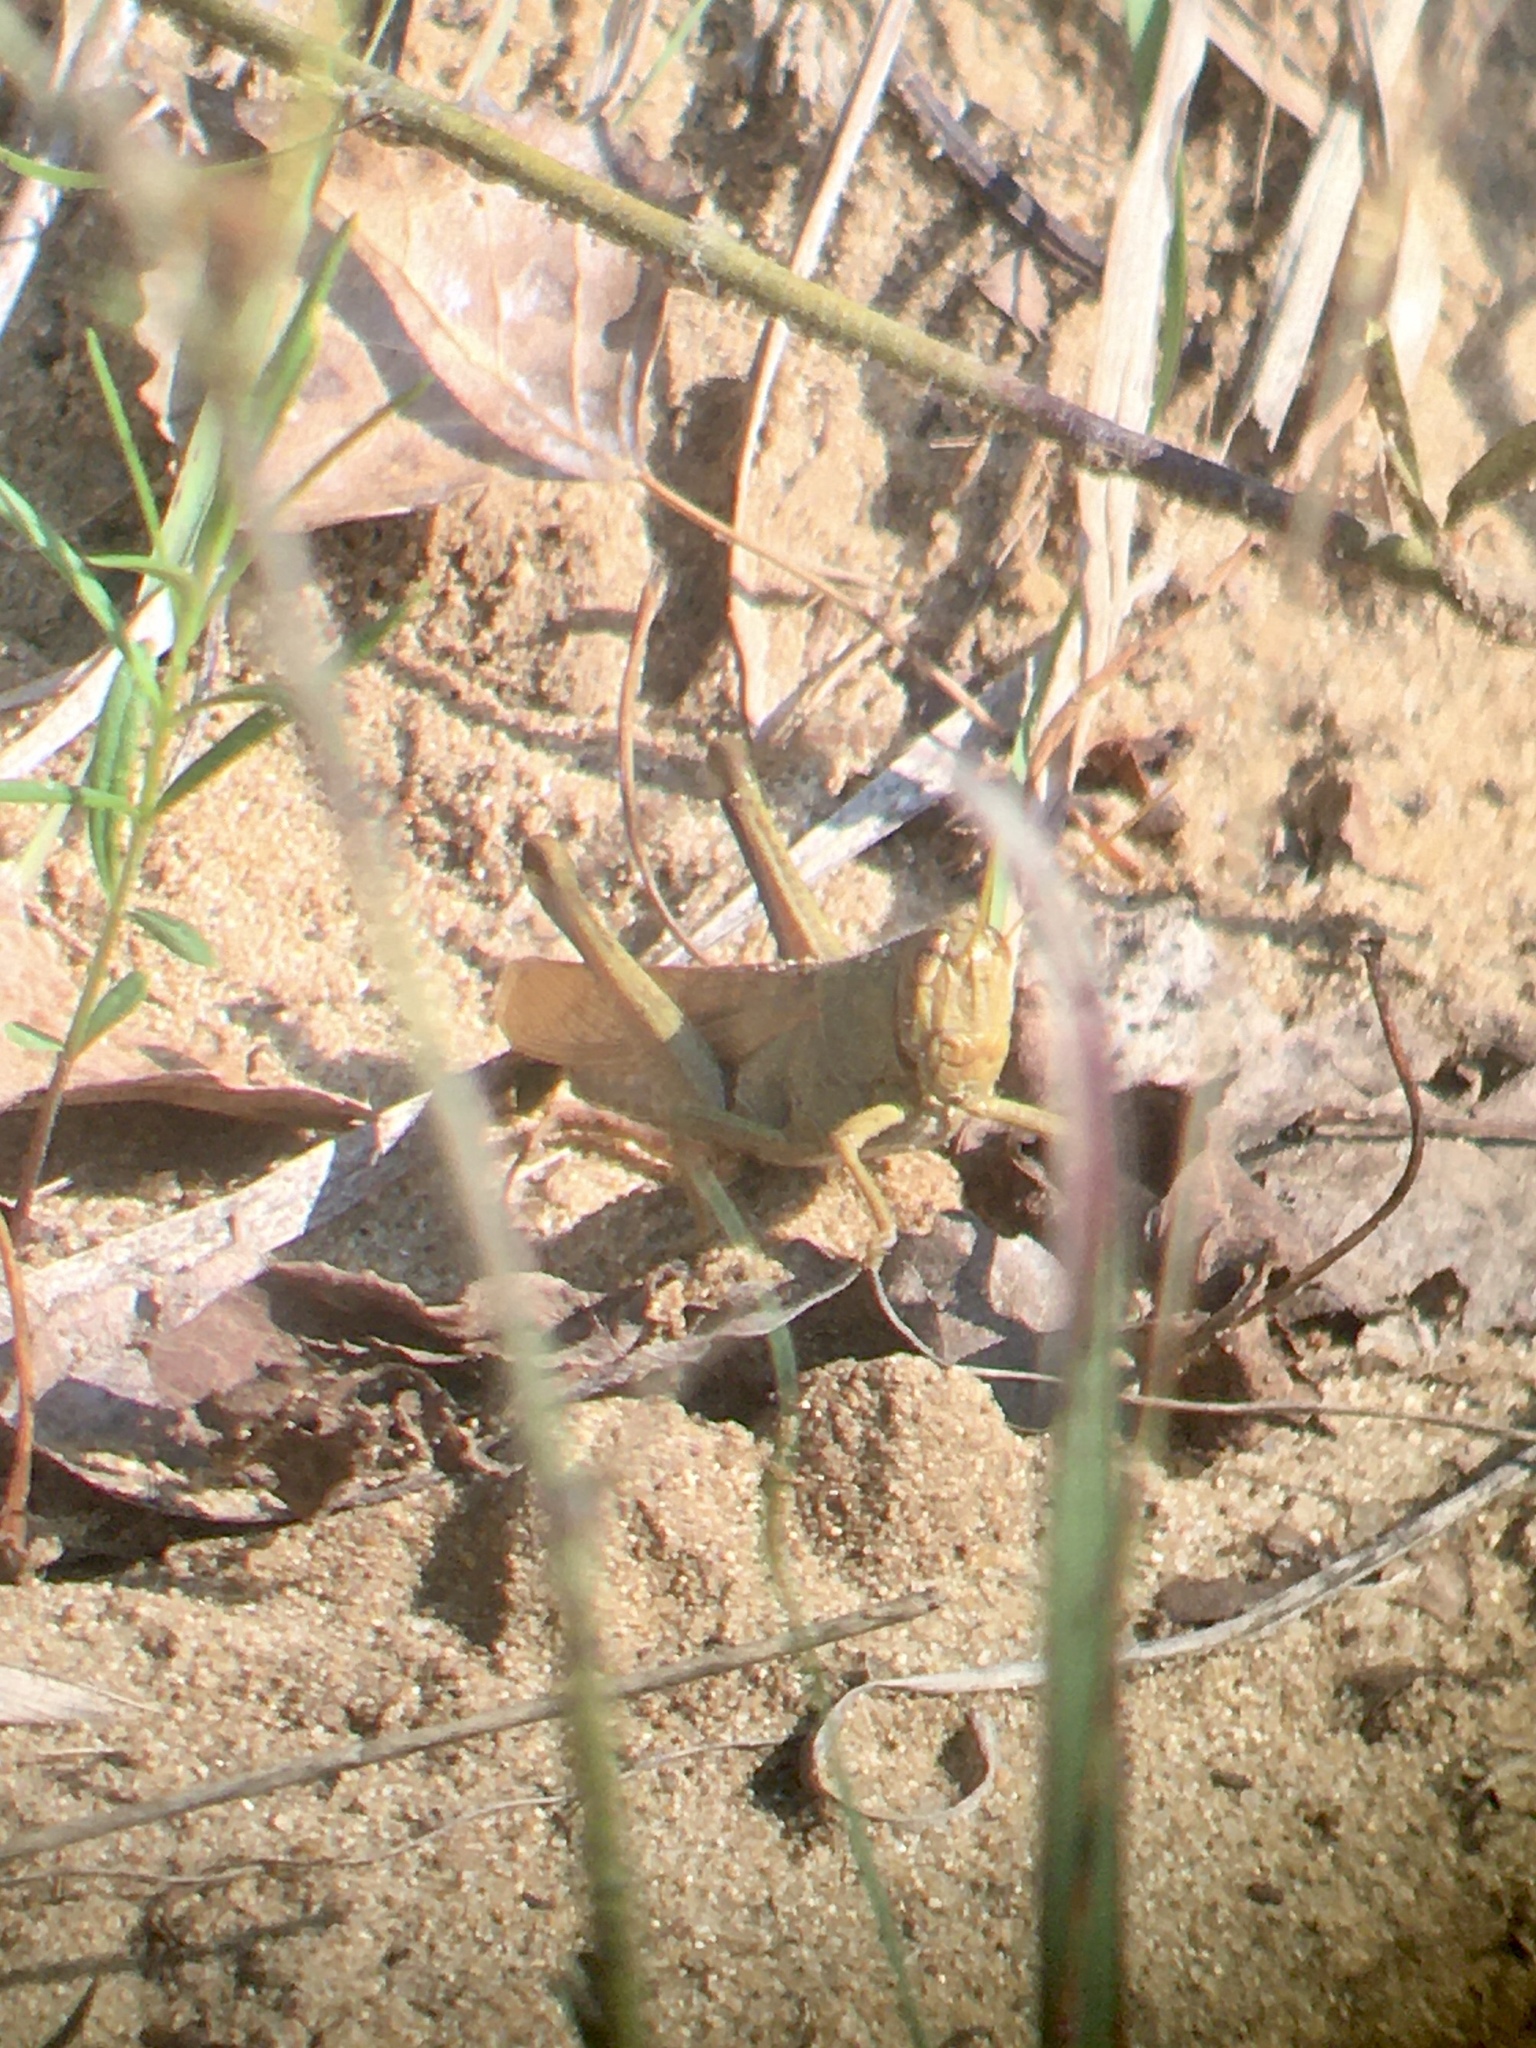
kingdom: Animalia
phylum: Arthropoda
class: Insecta
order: Orthoptera
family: Acrididae
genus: Schistocerca
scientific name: Schistocerca lineata
